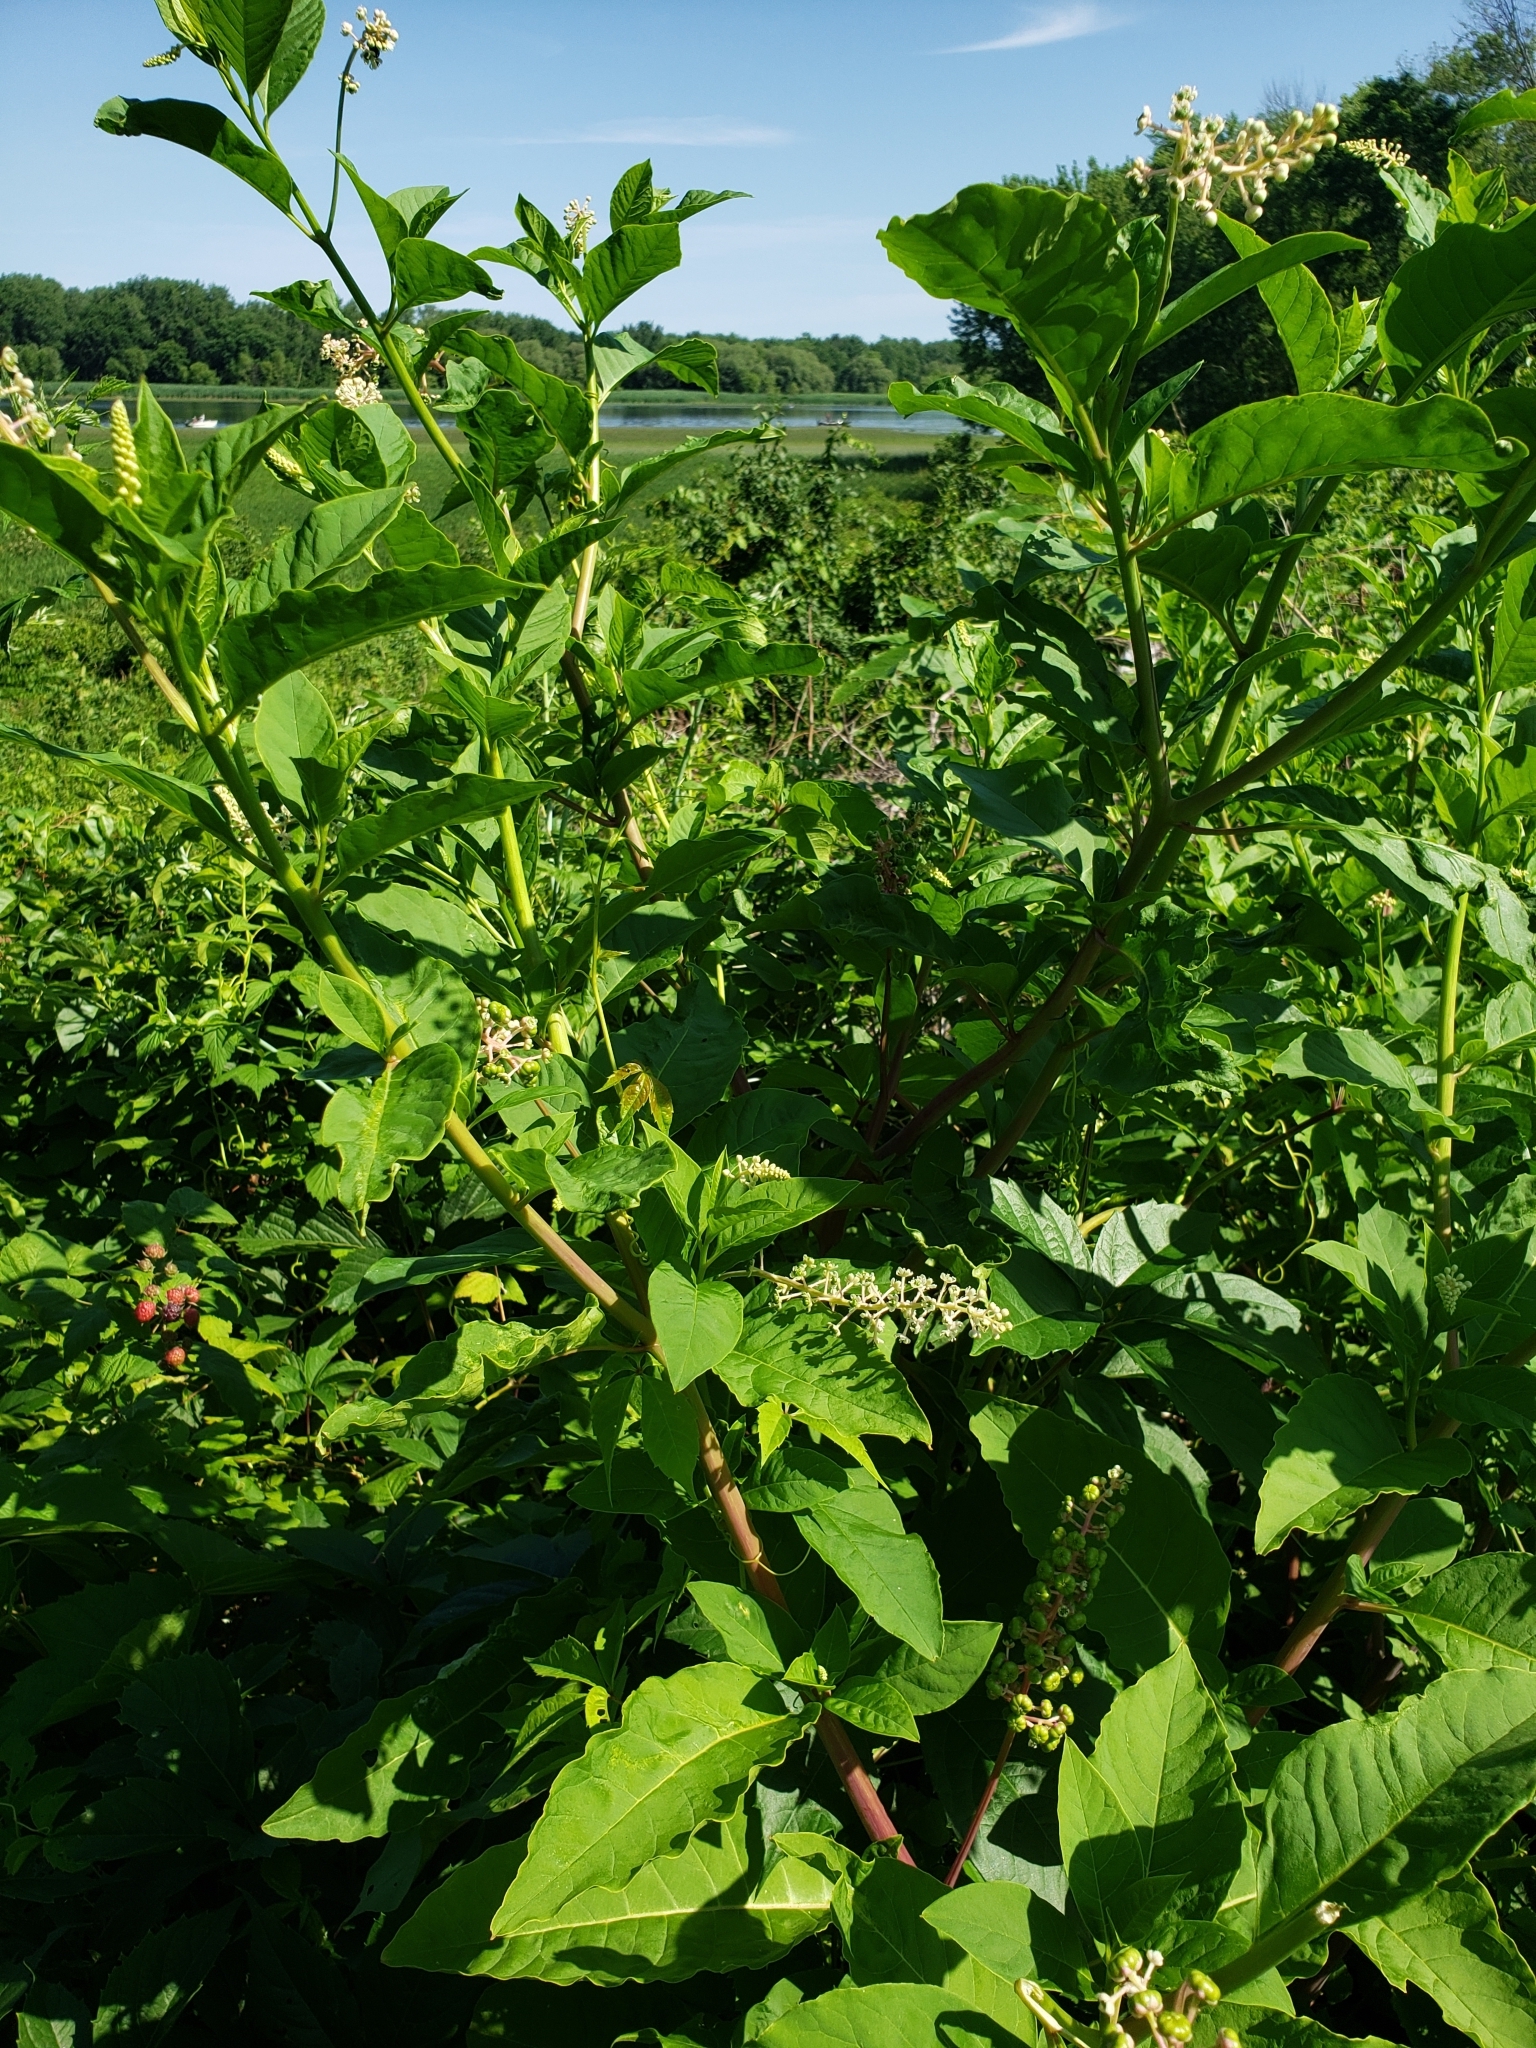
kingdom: Plantae
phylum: Tracheophyta
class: Magnoliopsida
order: Caryophyllales
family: Phytolaccaceae
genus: Phytolacca
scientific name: Phytolacca americana
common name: American pokeweed
